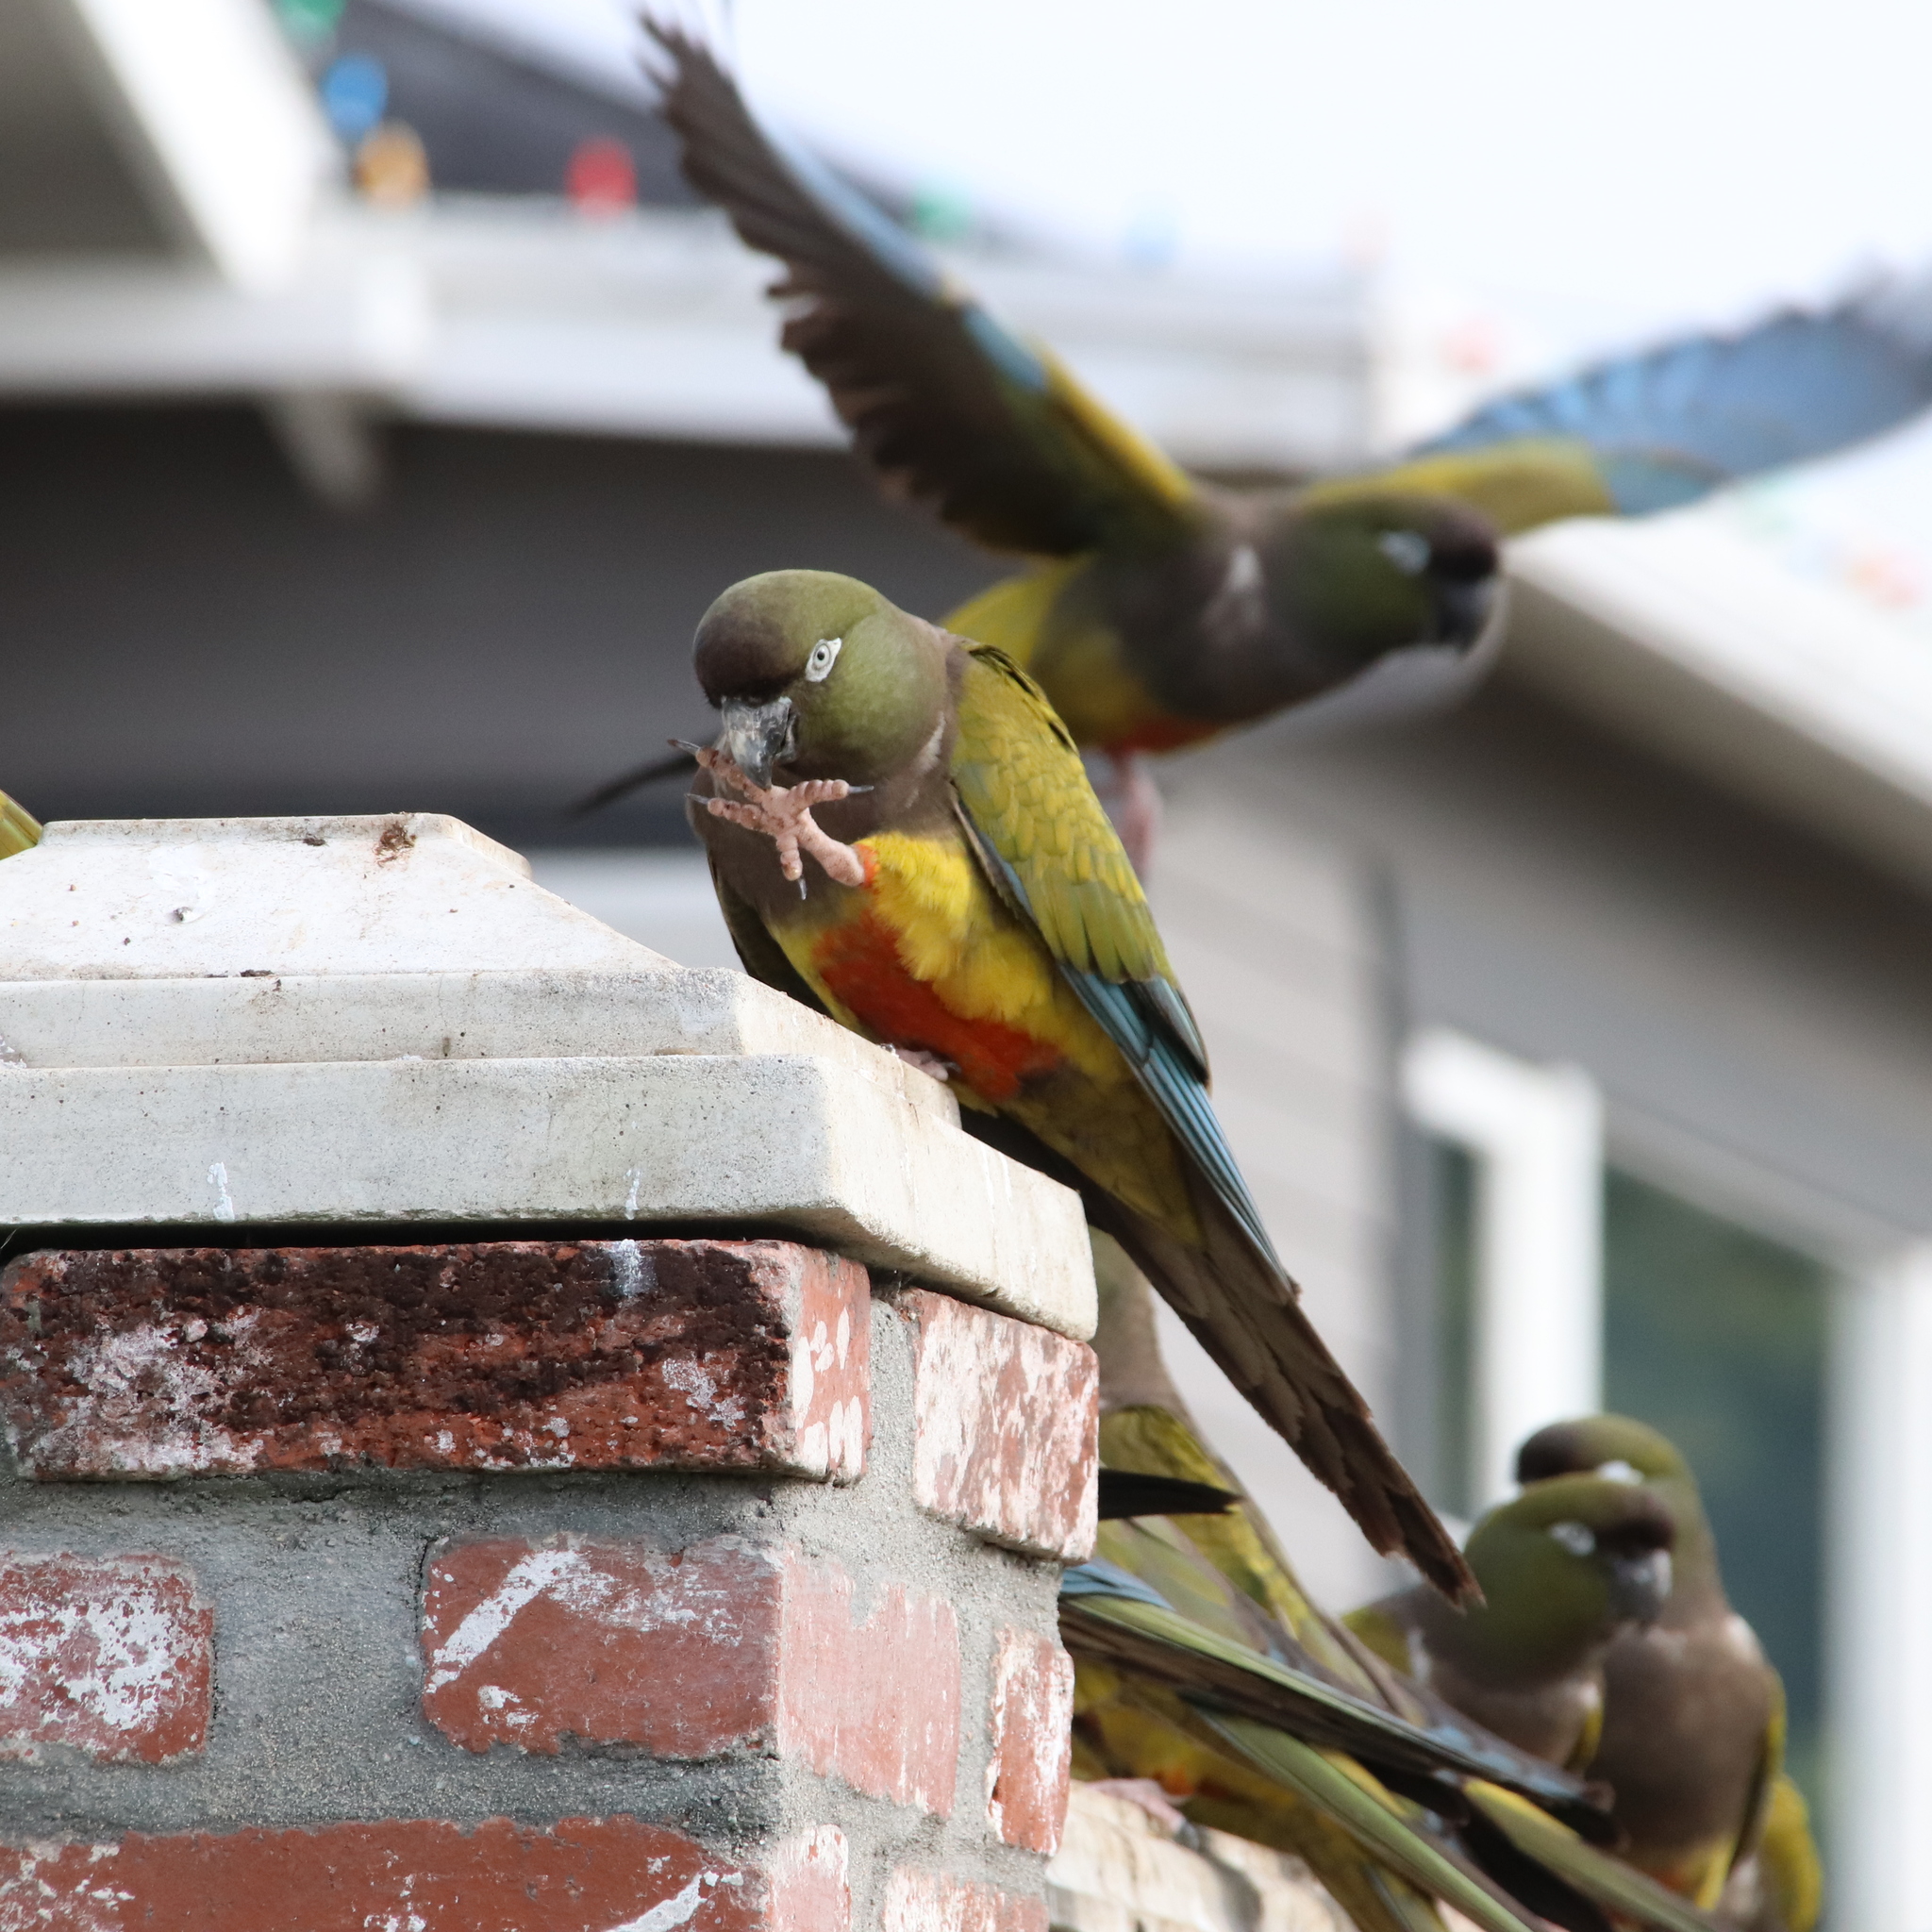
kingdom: Animalia
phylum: Chordata
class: Aves
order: Psittaciformes
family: Psittacidae
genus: Cyanoliseus
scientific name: Cyanoliseus patagonus
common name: Burrowing parrot
